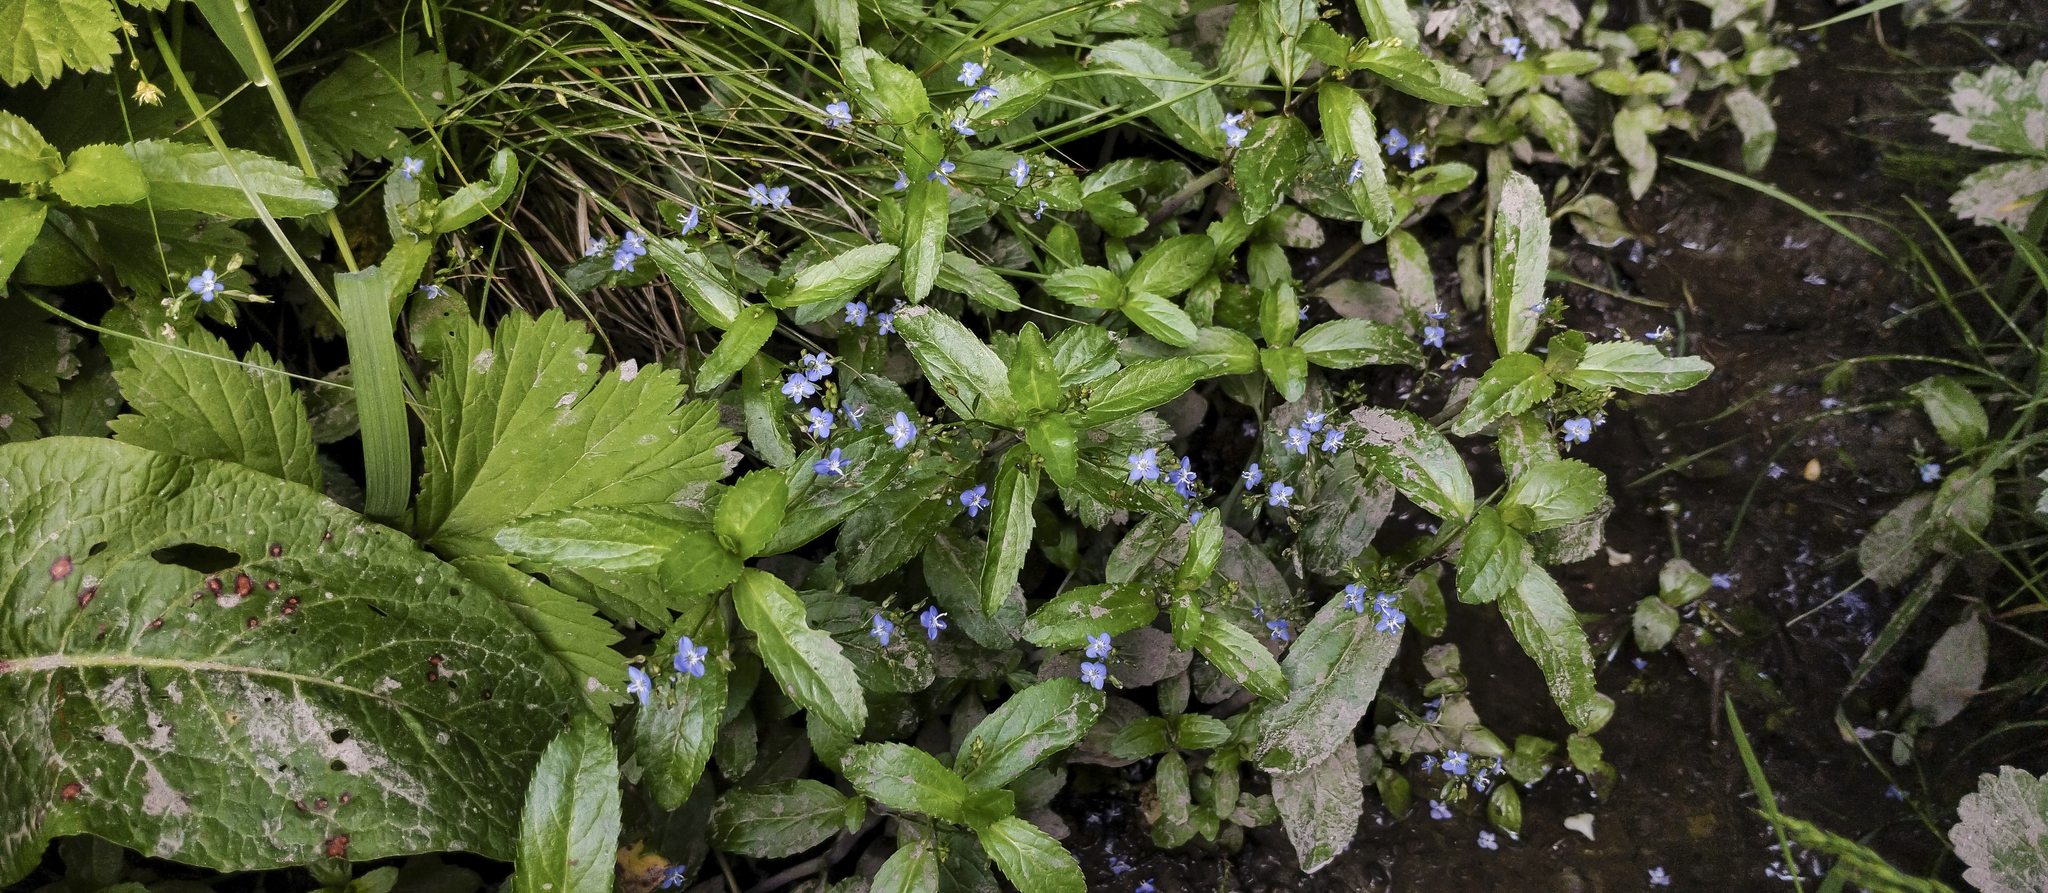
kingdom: Plantae
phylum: Tracheophyta
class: Magnoliopsida
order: Lamiales
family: Plantaginaceae
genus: Veronica
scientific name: Veronica beccabunga
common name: Brooklime
